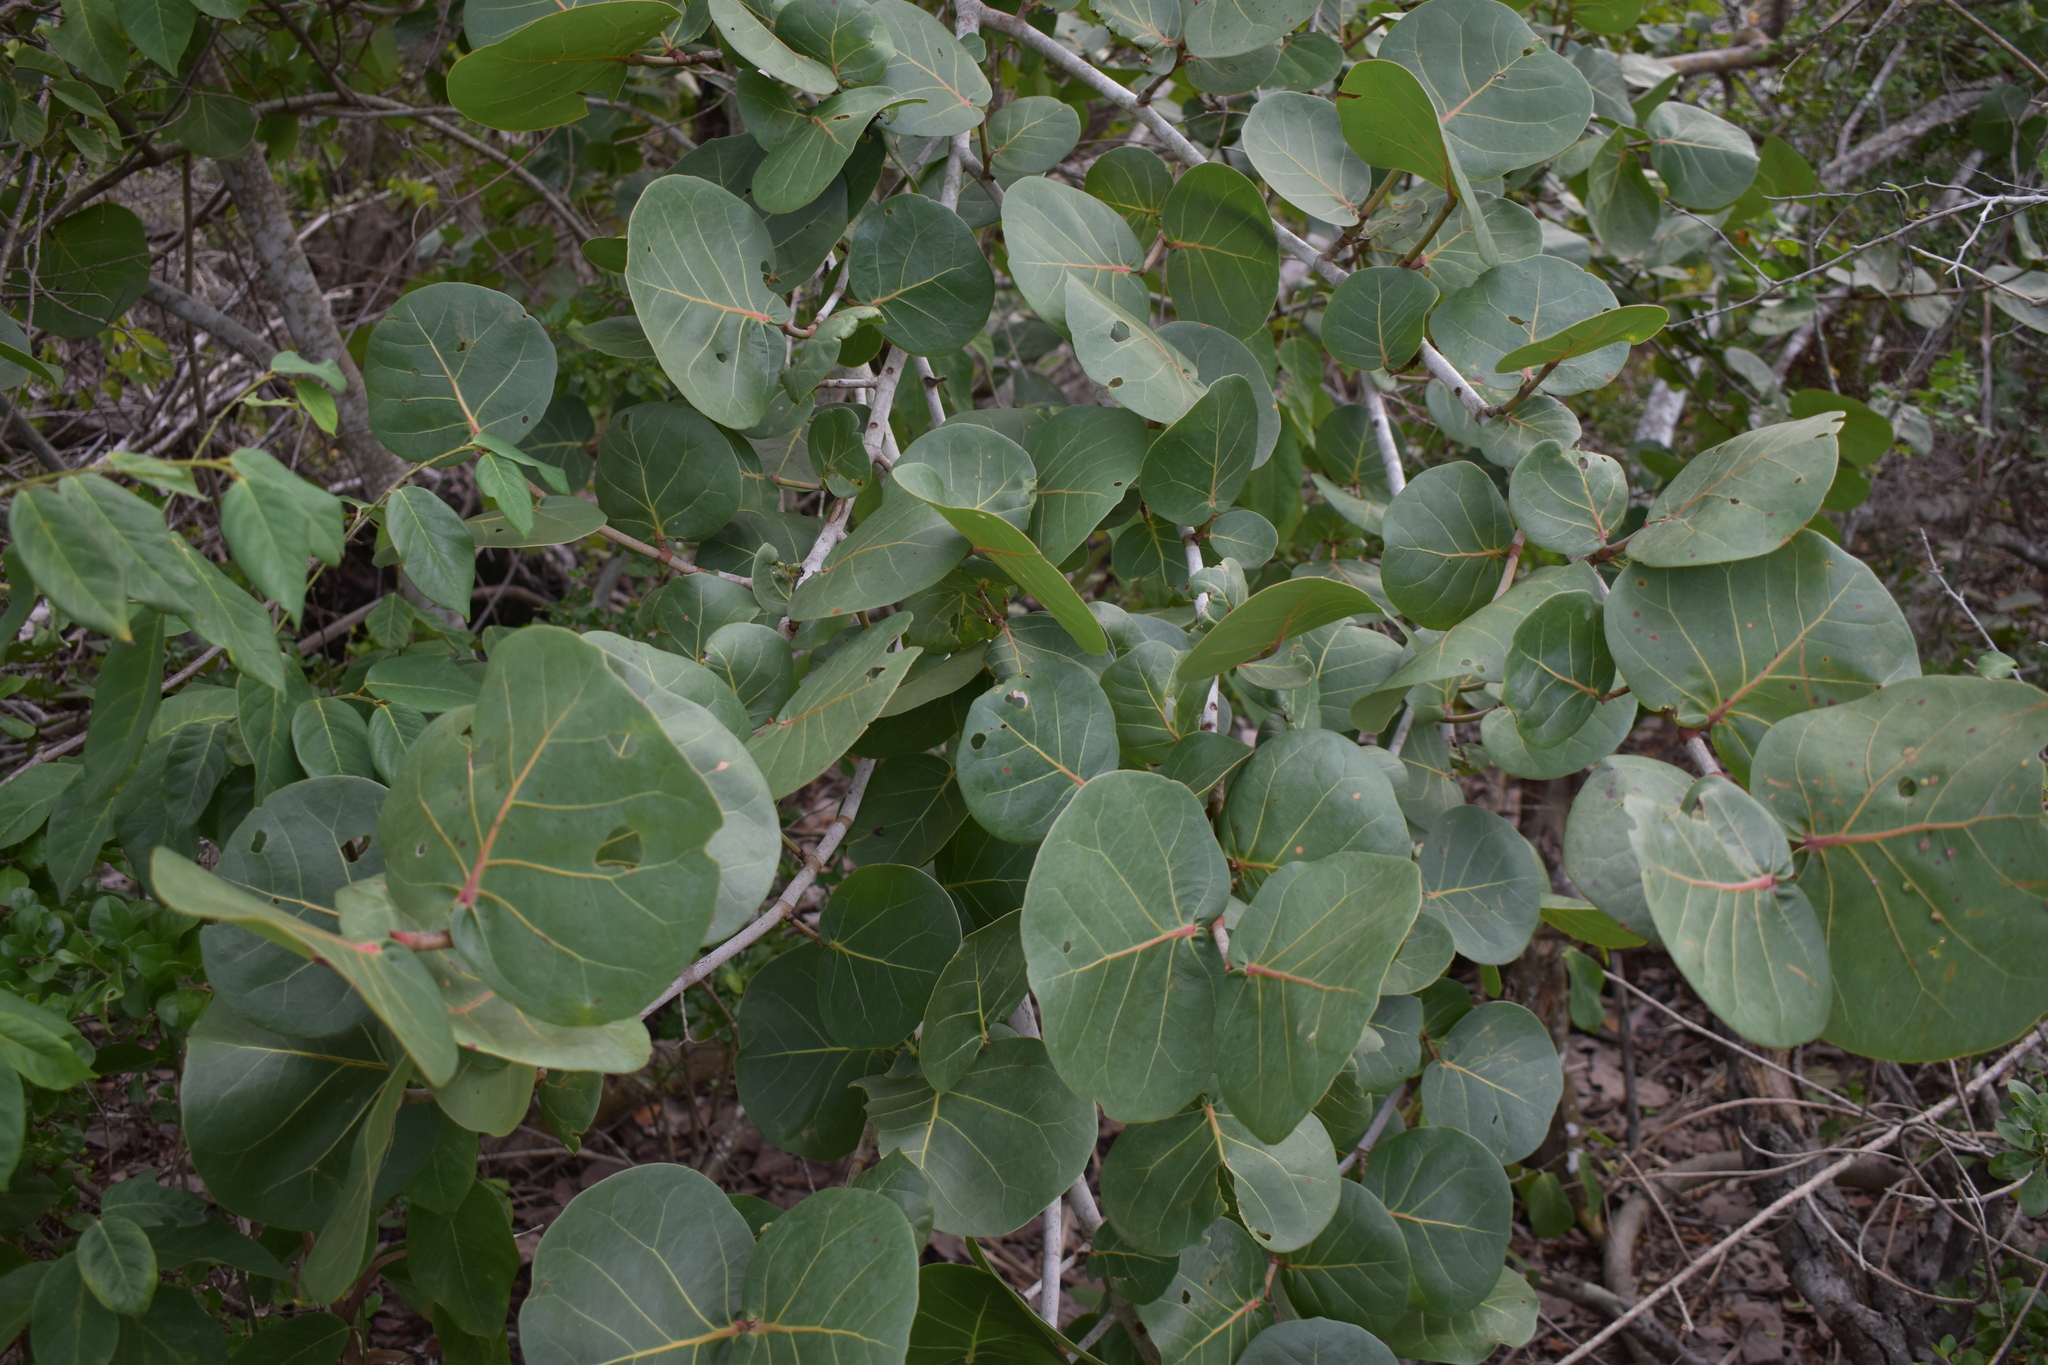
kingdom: Plantae
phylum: Tracheophyta
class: Magnoliopsida
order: Caryophyllales
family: Polygonaceae
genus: Coccoloba
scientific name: Coccoloba uvifera
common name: Seagrape
